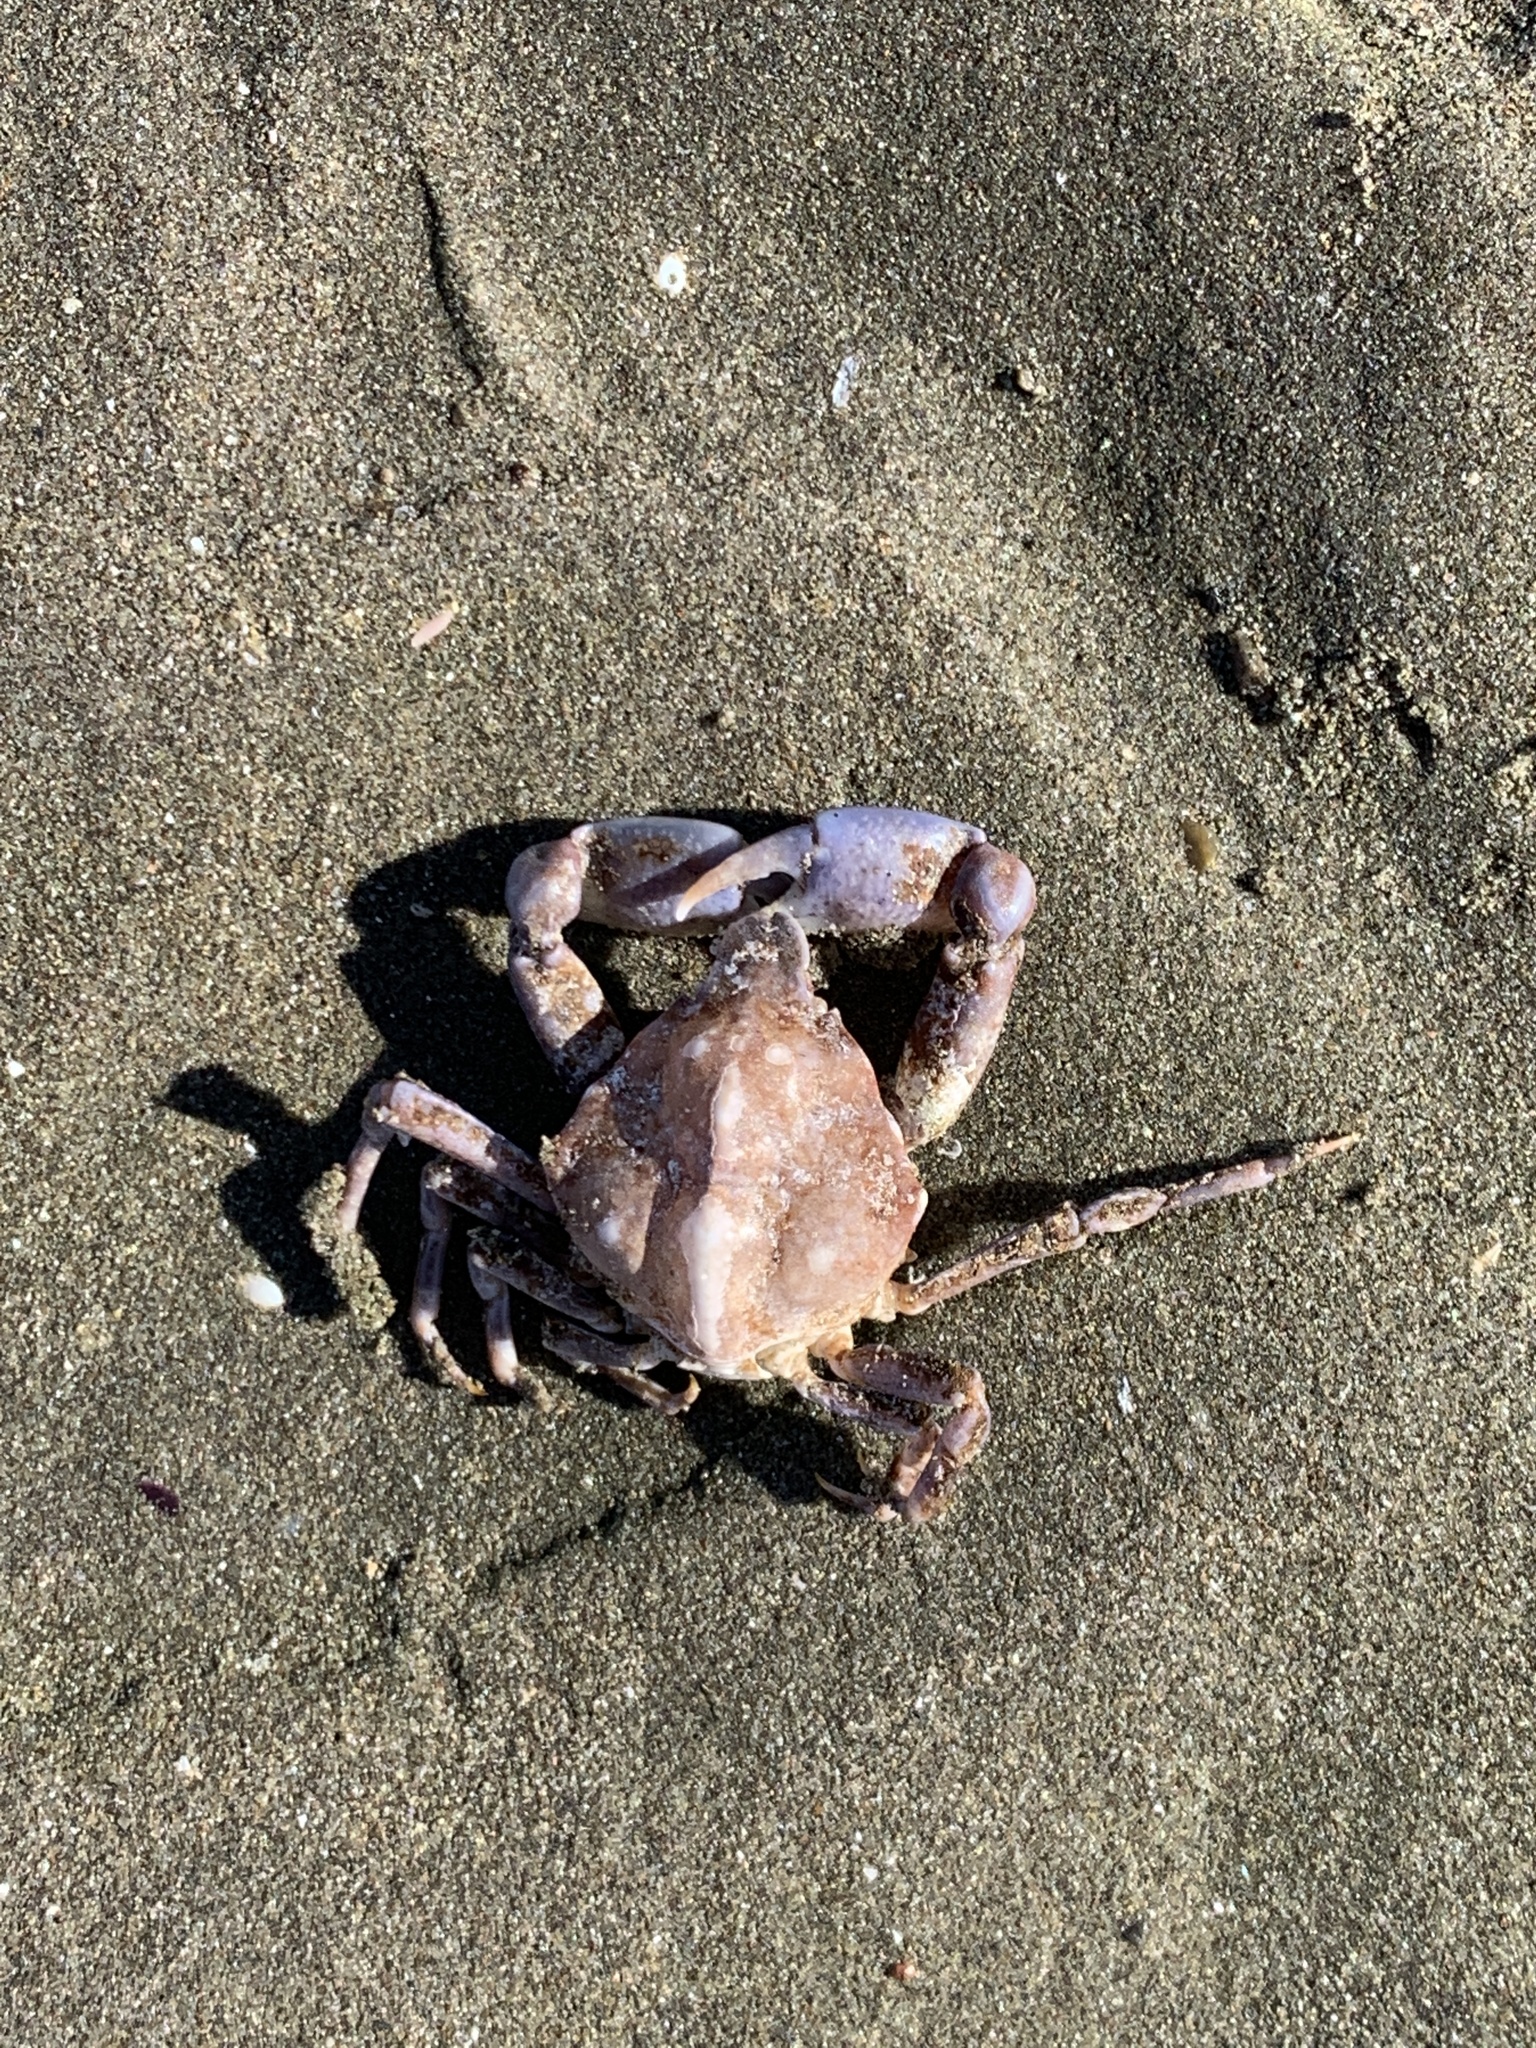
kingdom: Animalia
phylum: Arthropoda
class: Malacostraca
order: Decapoda
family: Epialtidae
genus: Leucippa
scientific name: Leucippa pentagona
